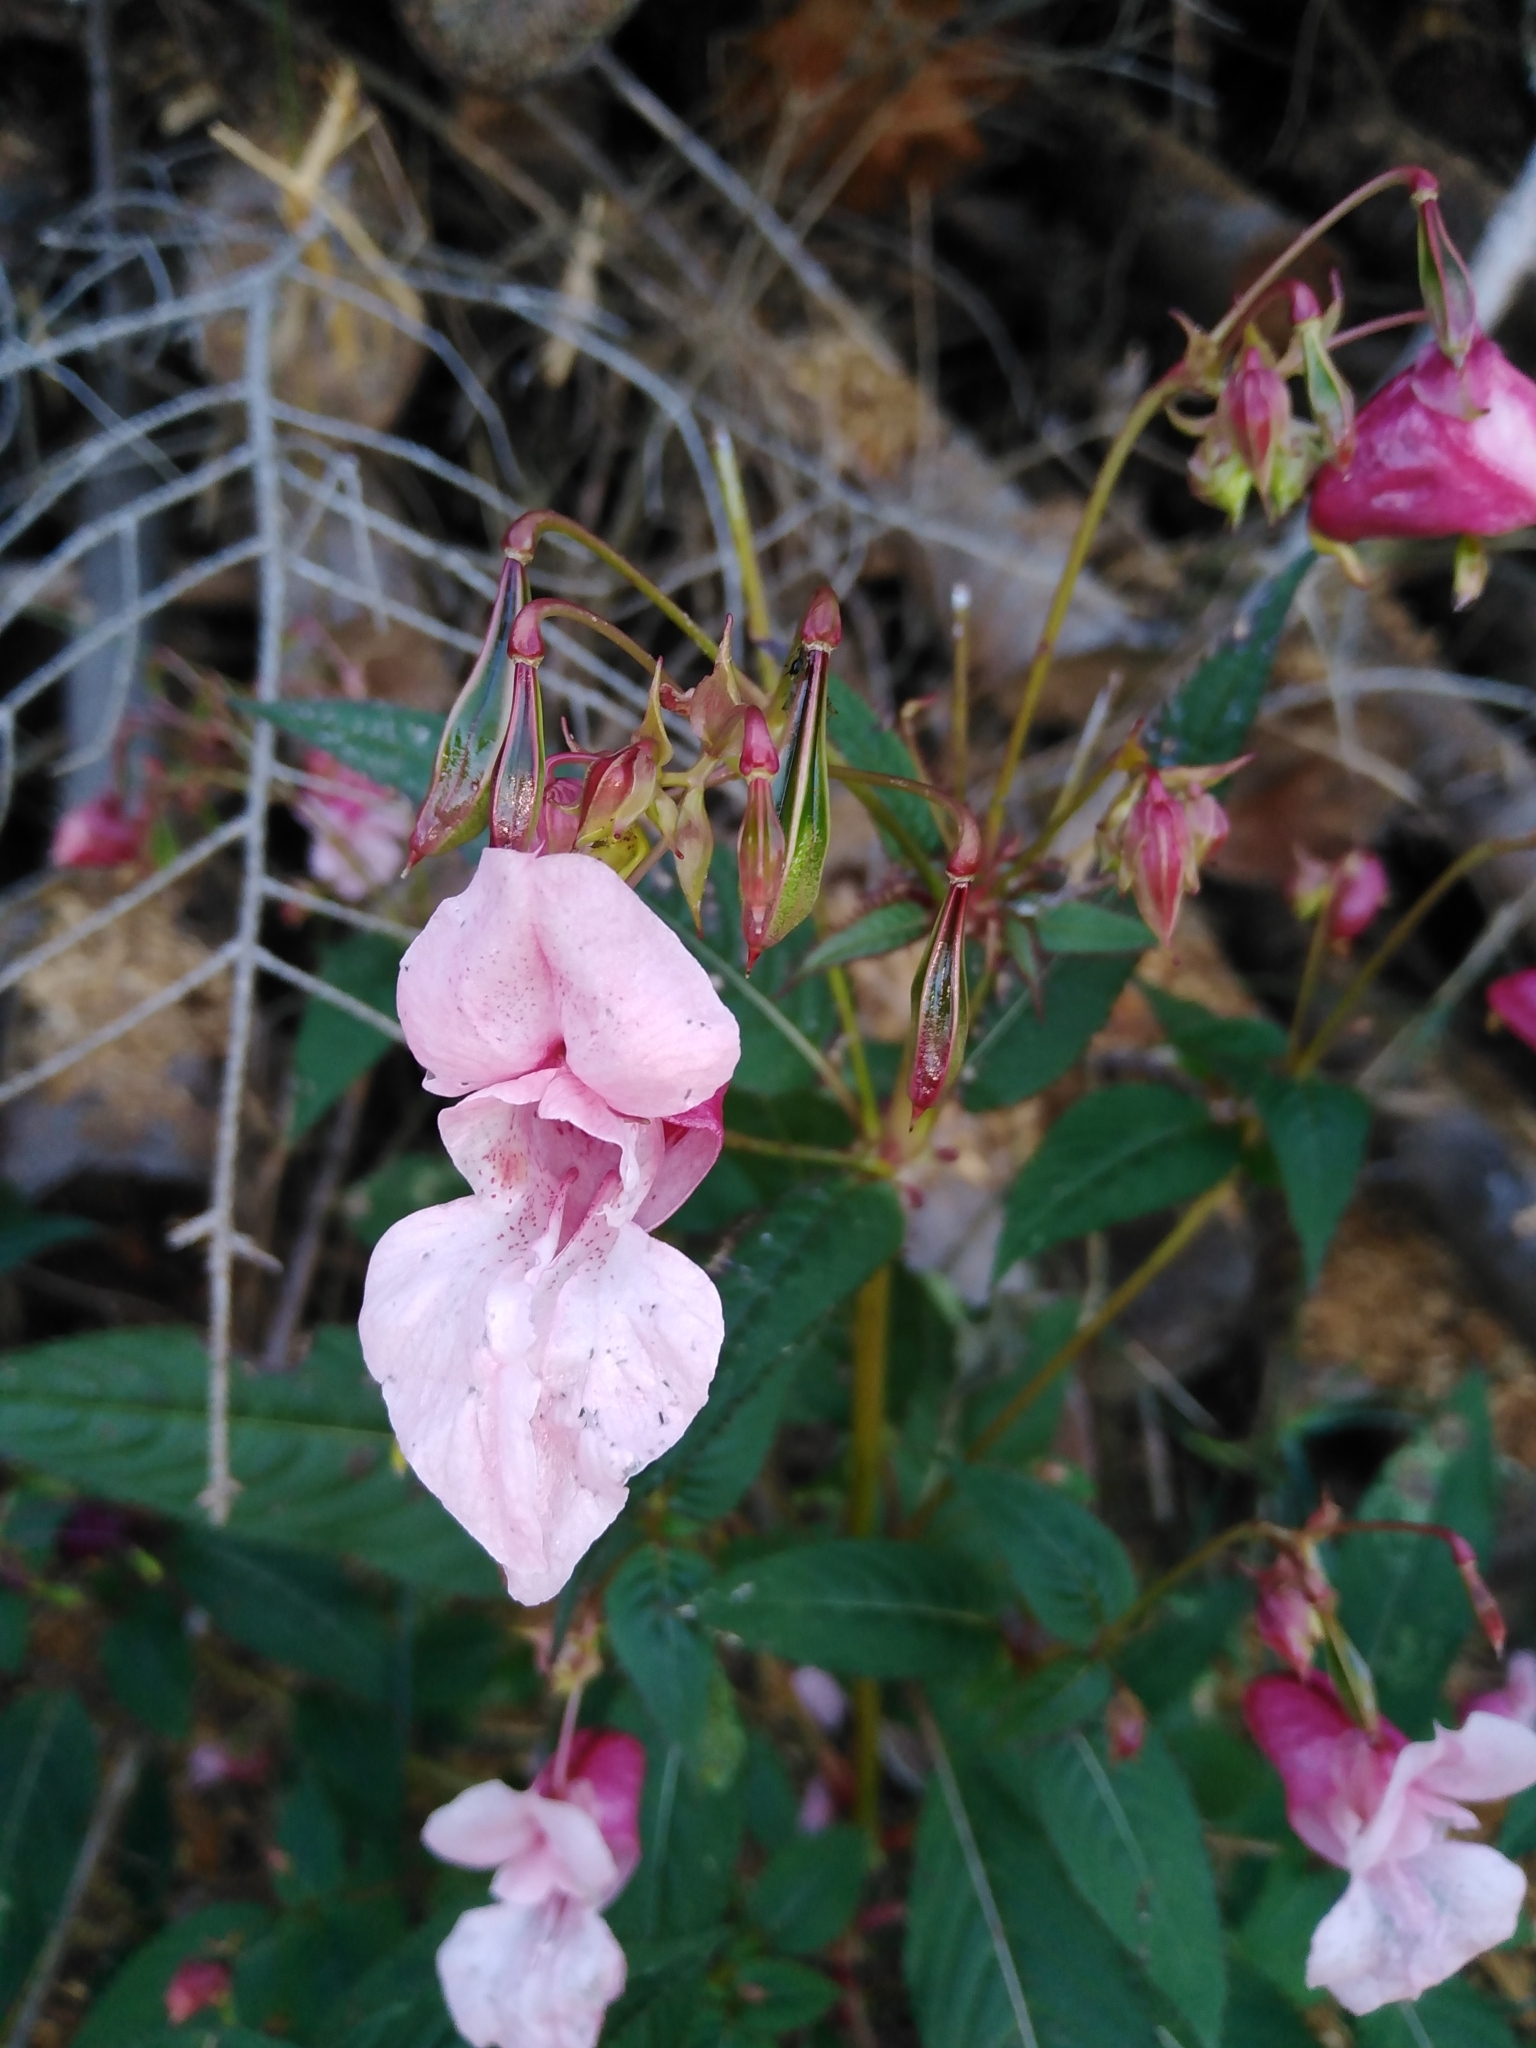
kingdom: Plantae
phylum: Tracheophyta
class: Magnoliopsida
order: Ericales
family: Balsaminaceae
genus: Impatiens
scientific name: Impatiens glandulifera
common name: Himalayan balsam
